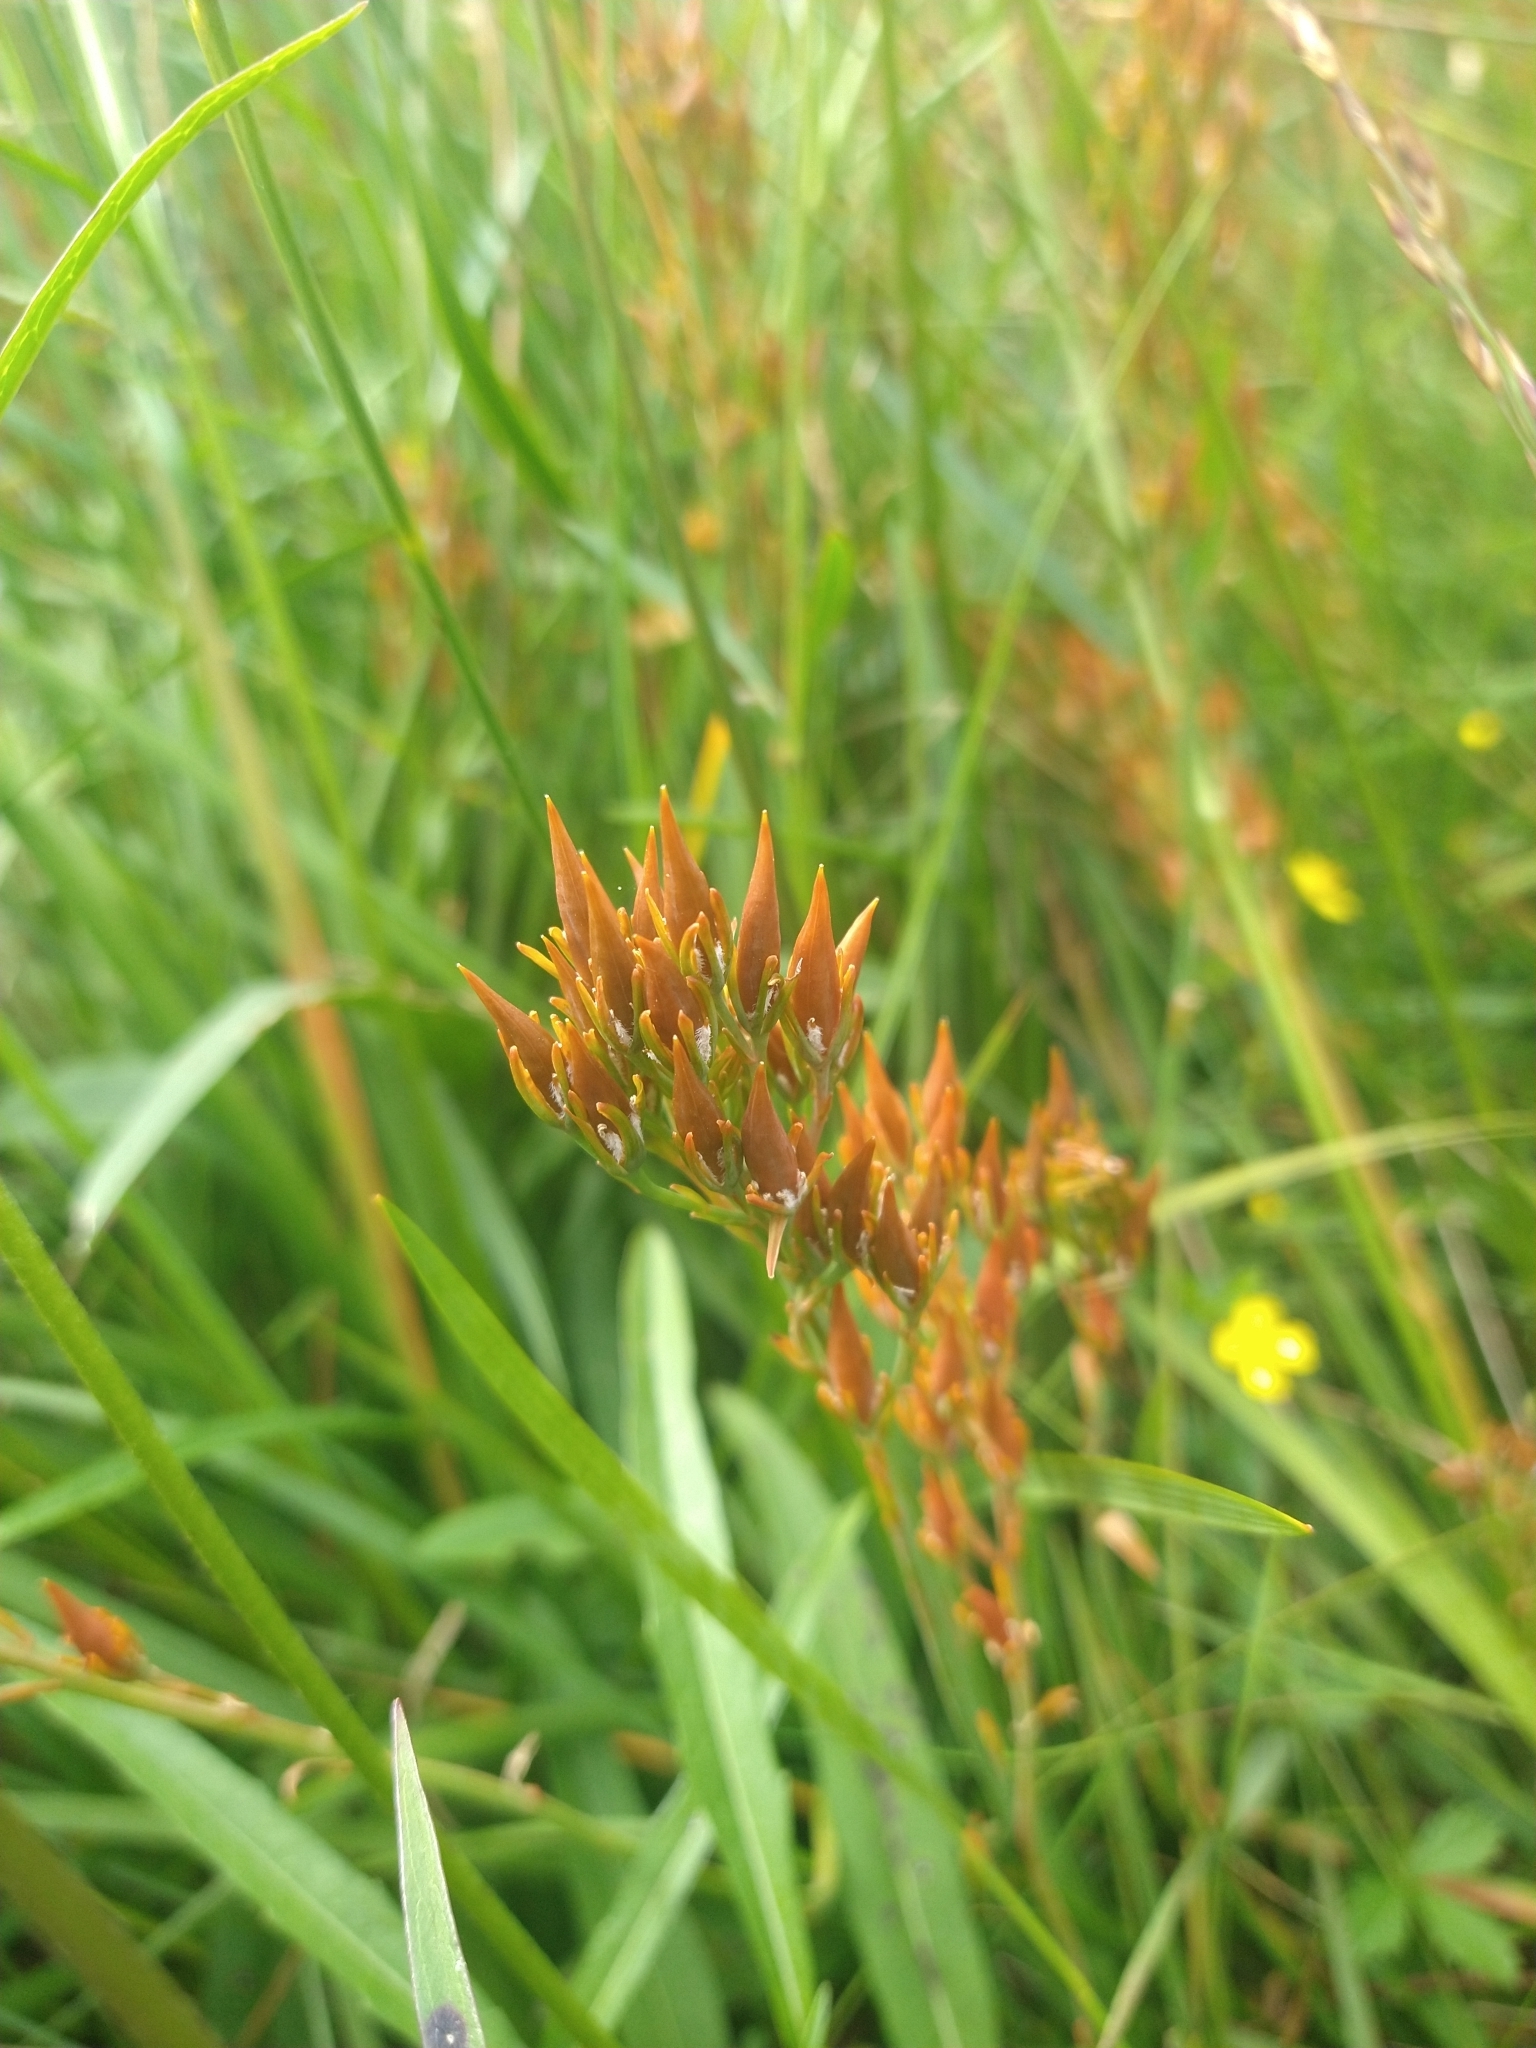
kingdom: Plantae
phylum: Tracheophyta
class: Liliopsida
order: Dioscoreales
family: Nartheciaceae
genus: Narthecium
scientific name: Narthecium ossifragum
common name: Bog asphodel
